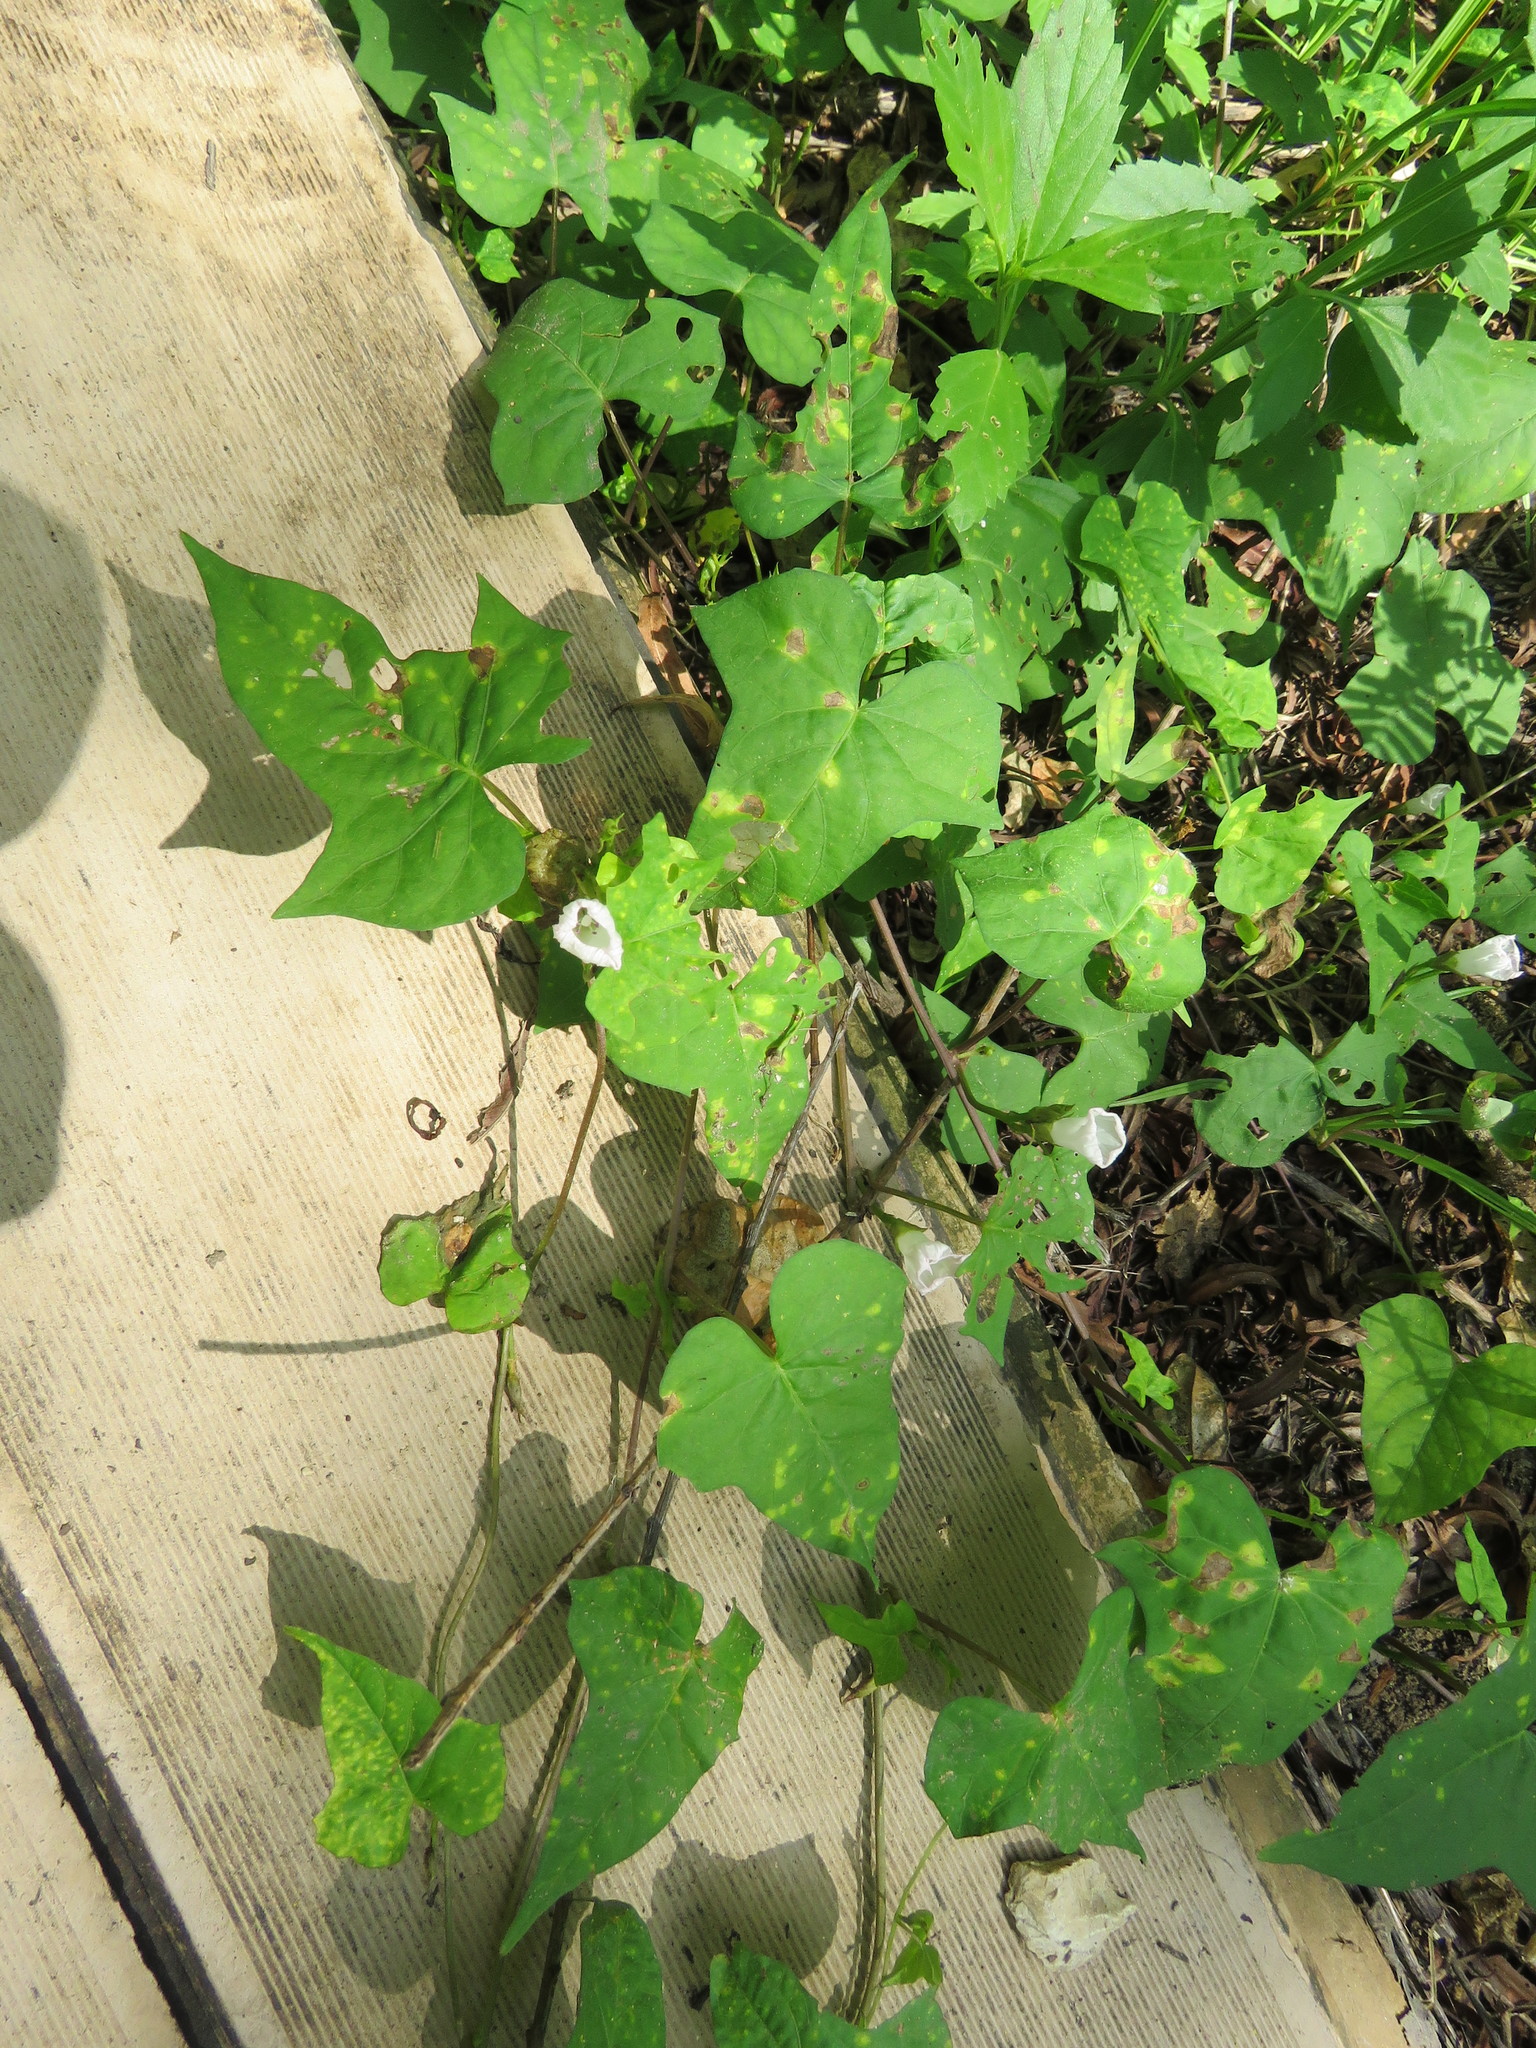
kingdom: Plantae
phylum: Tracheophyta
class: Magnoliopsida
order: Solanales
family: Convolvulaceae
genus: Ipomoea
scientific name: Ipomoea lacunosa
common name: White morning-glory
